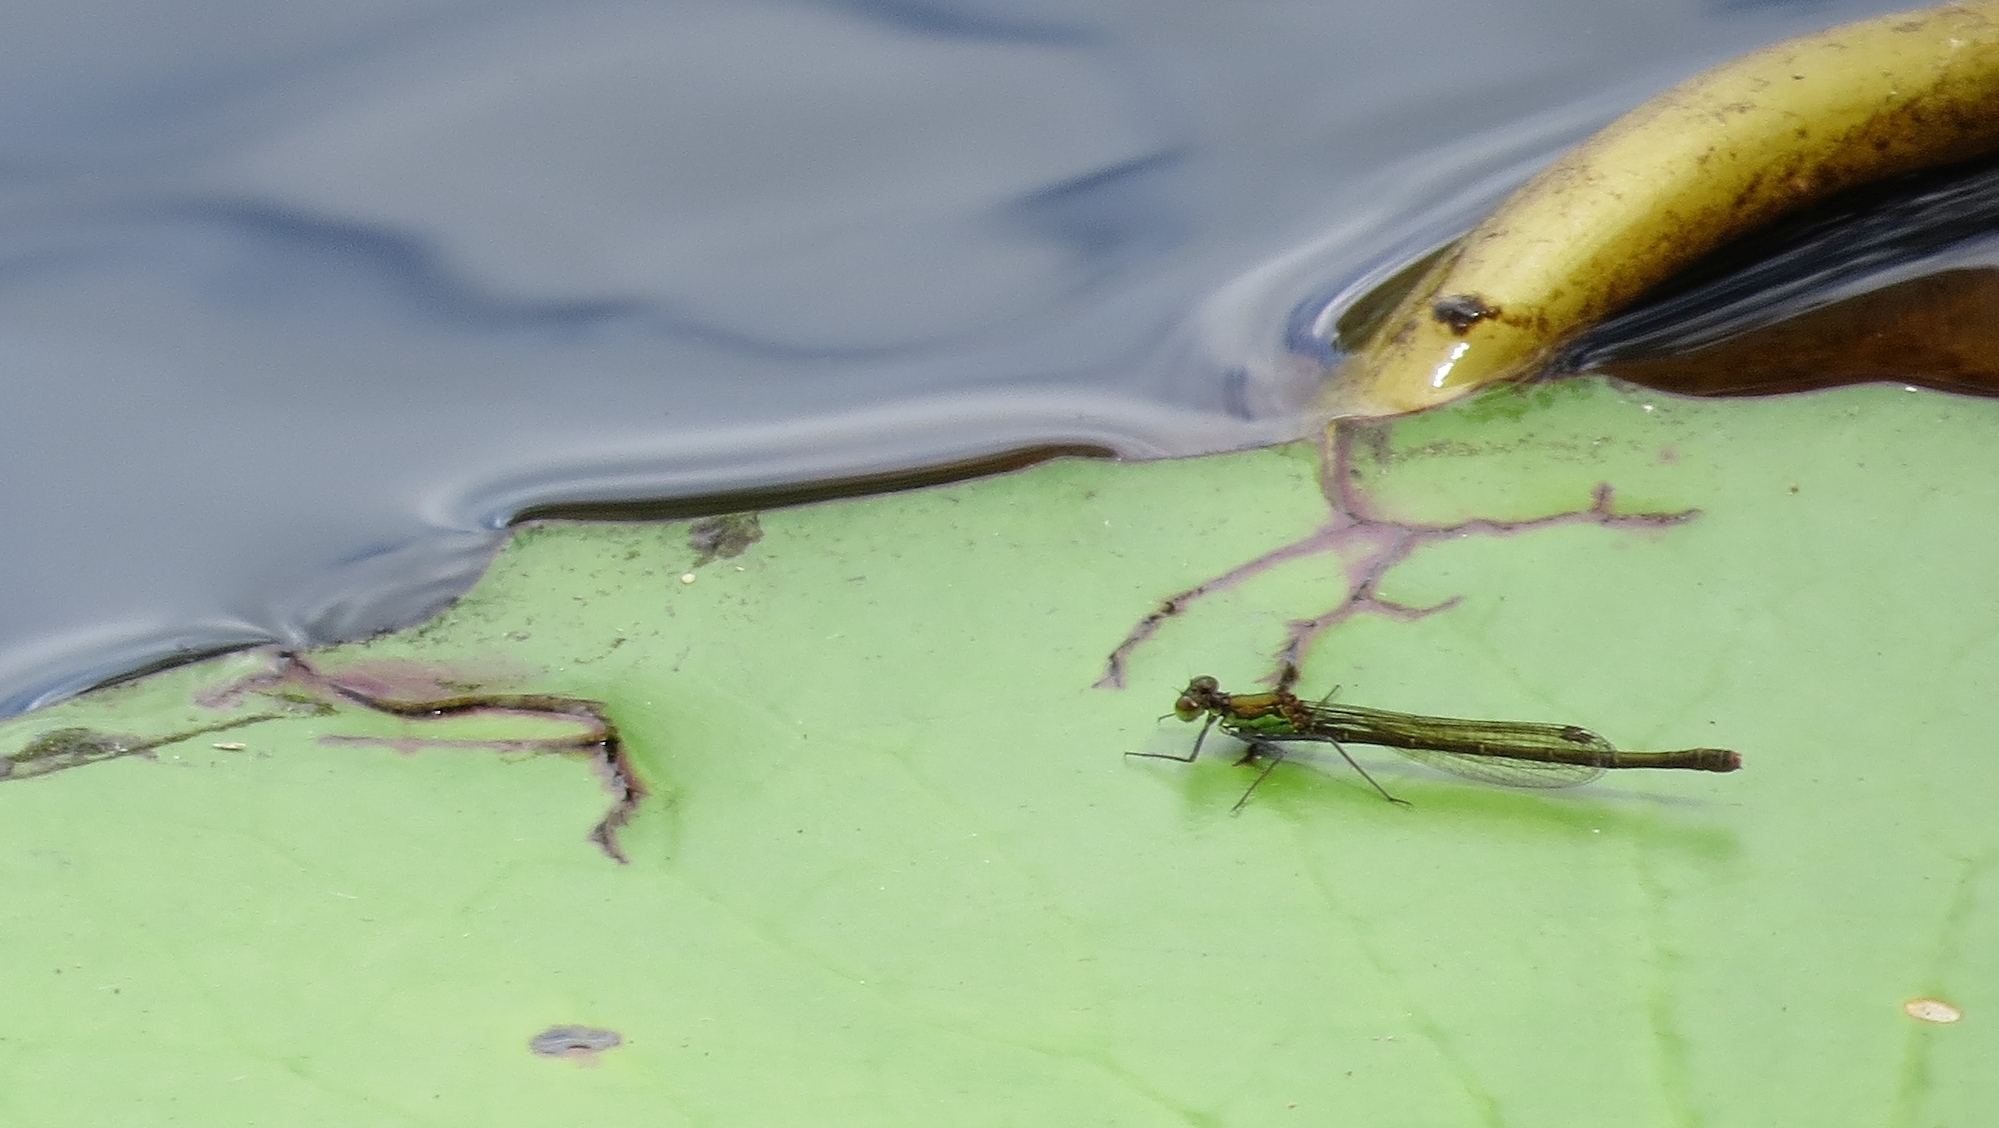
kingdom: Animalia
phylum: Arthropoda
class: Insecta
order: Odonata
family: Coenagrionidae
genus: Austrocnemis
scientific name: Austrocnemis splendida
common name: Splendid longlegs
